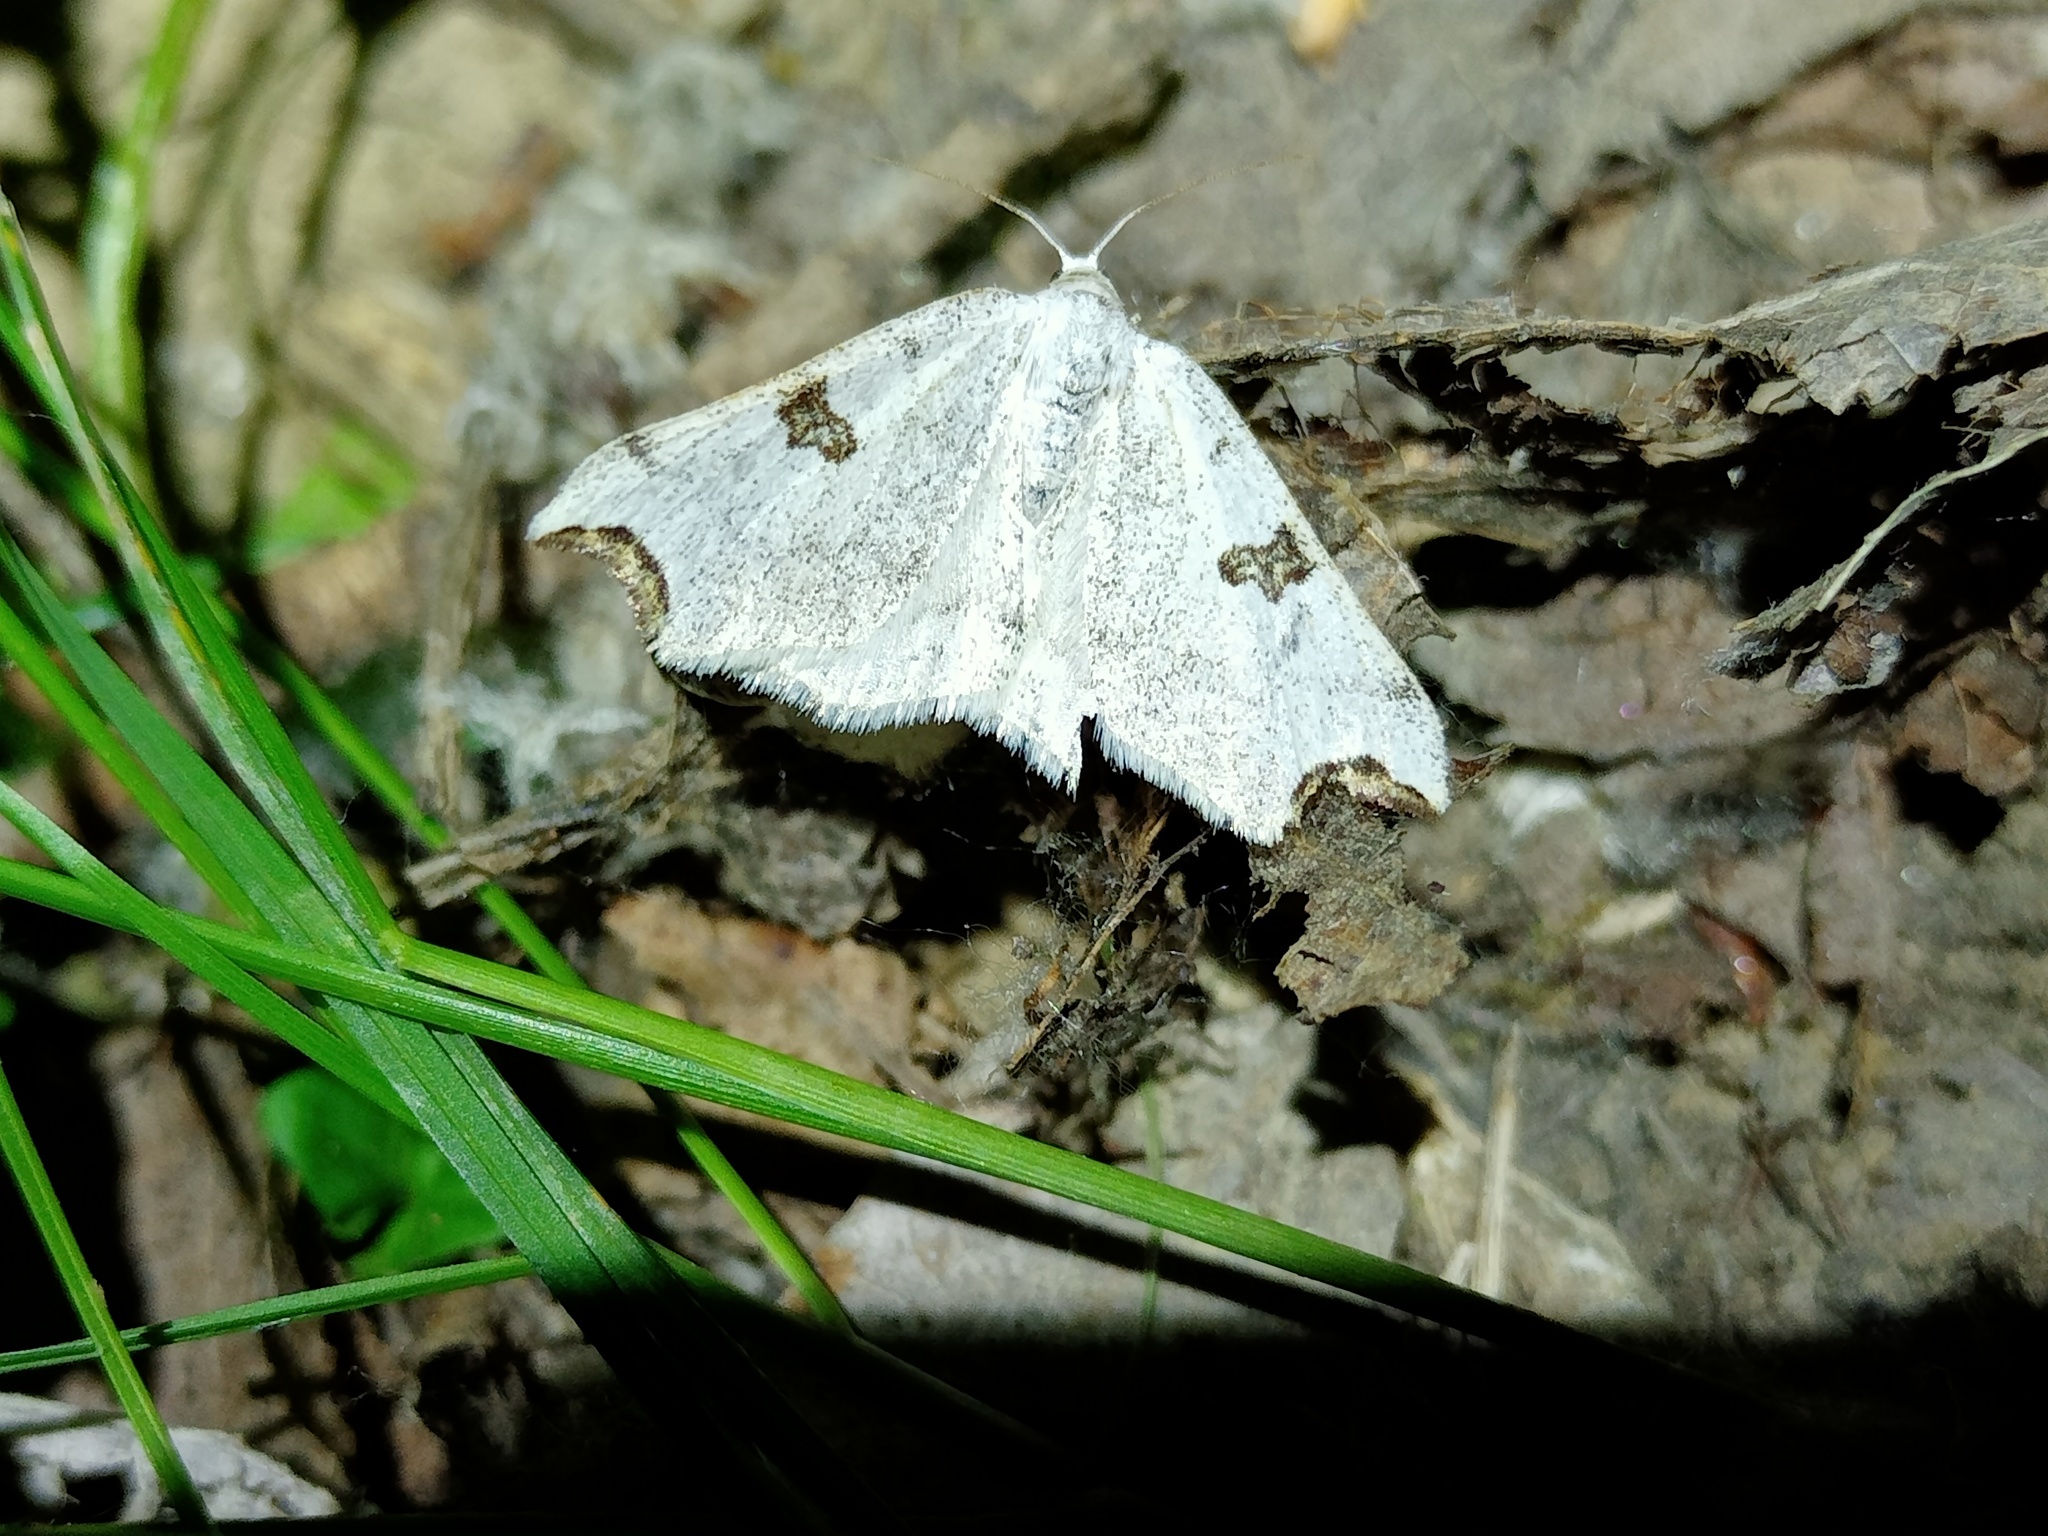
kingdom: Animalia
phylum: Arthropoda
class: Insecta
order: Lepidoptera
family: Geometridae
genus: Eilicrinia
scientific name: Eilicrinia cordiaria
